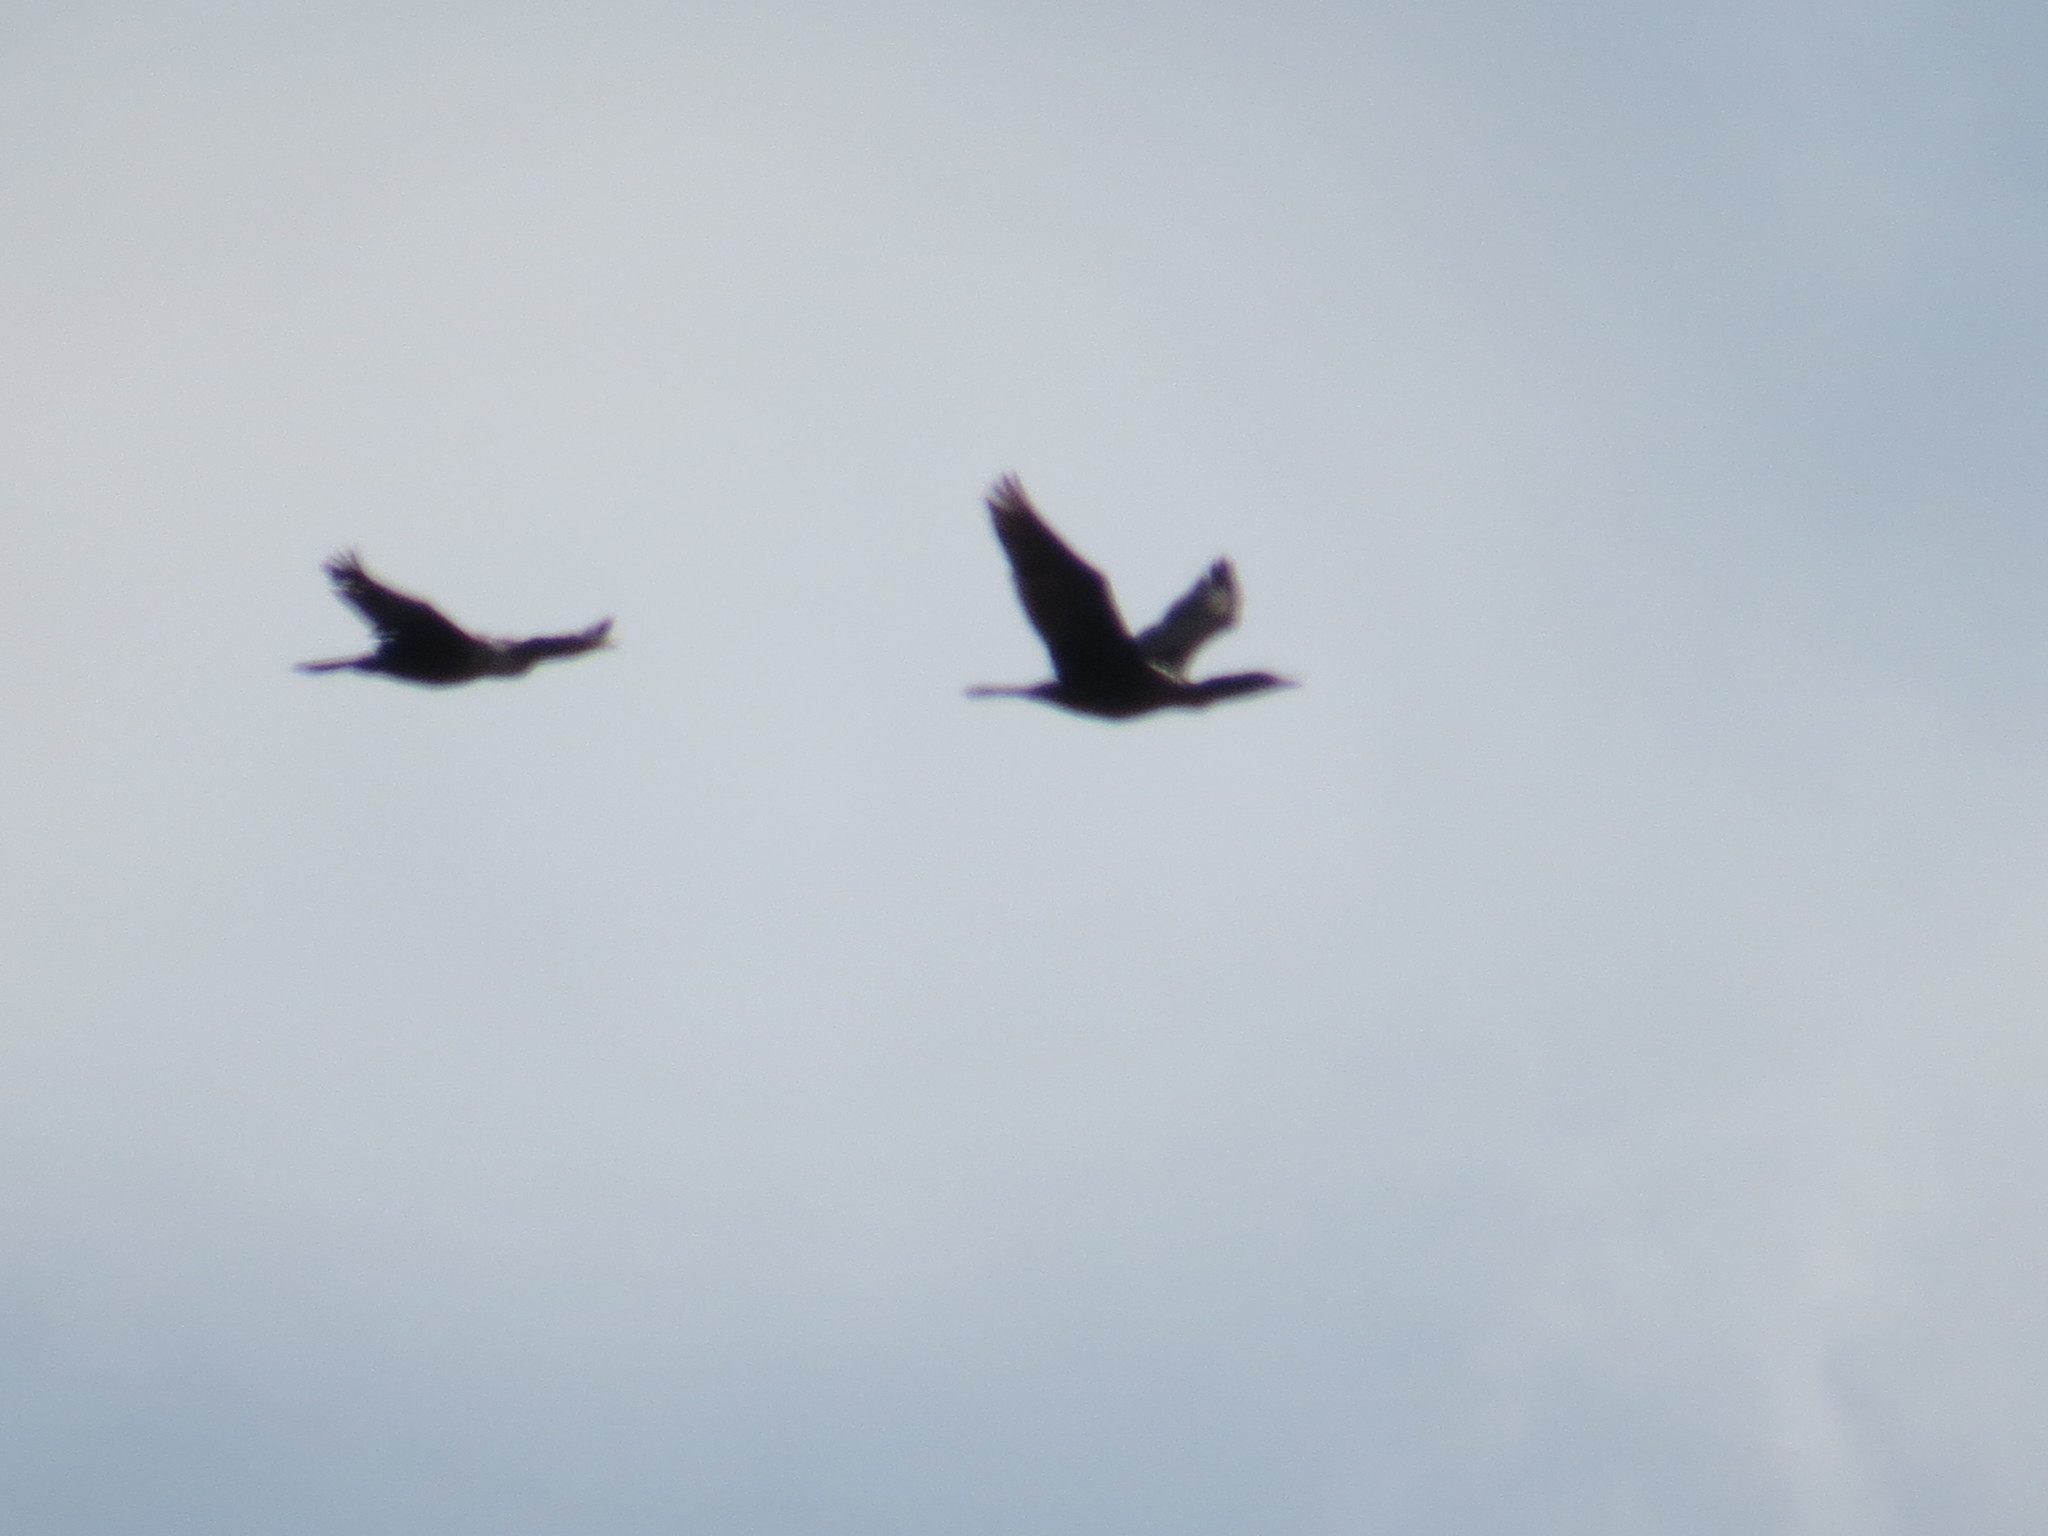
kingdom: Animalia
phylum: Chordata
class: Aves
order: Suliformes
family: Phalacrocoracidae
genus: Phalacrocorax
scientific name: Phalacrocorax auritus
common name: Double-crested cormorant
